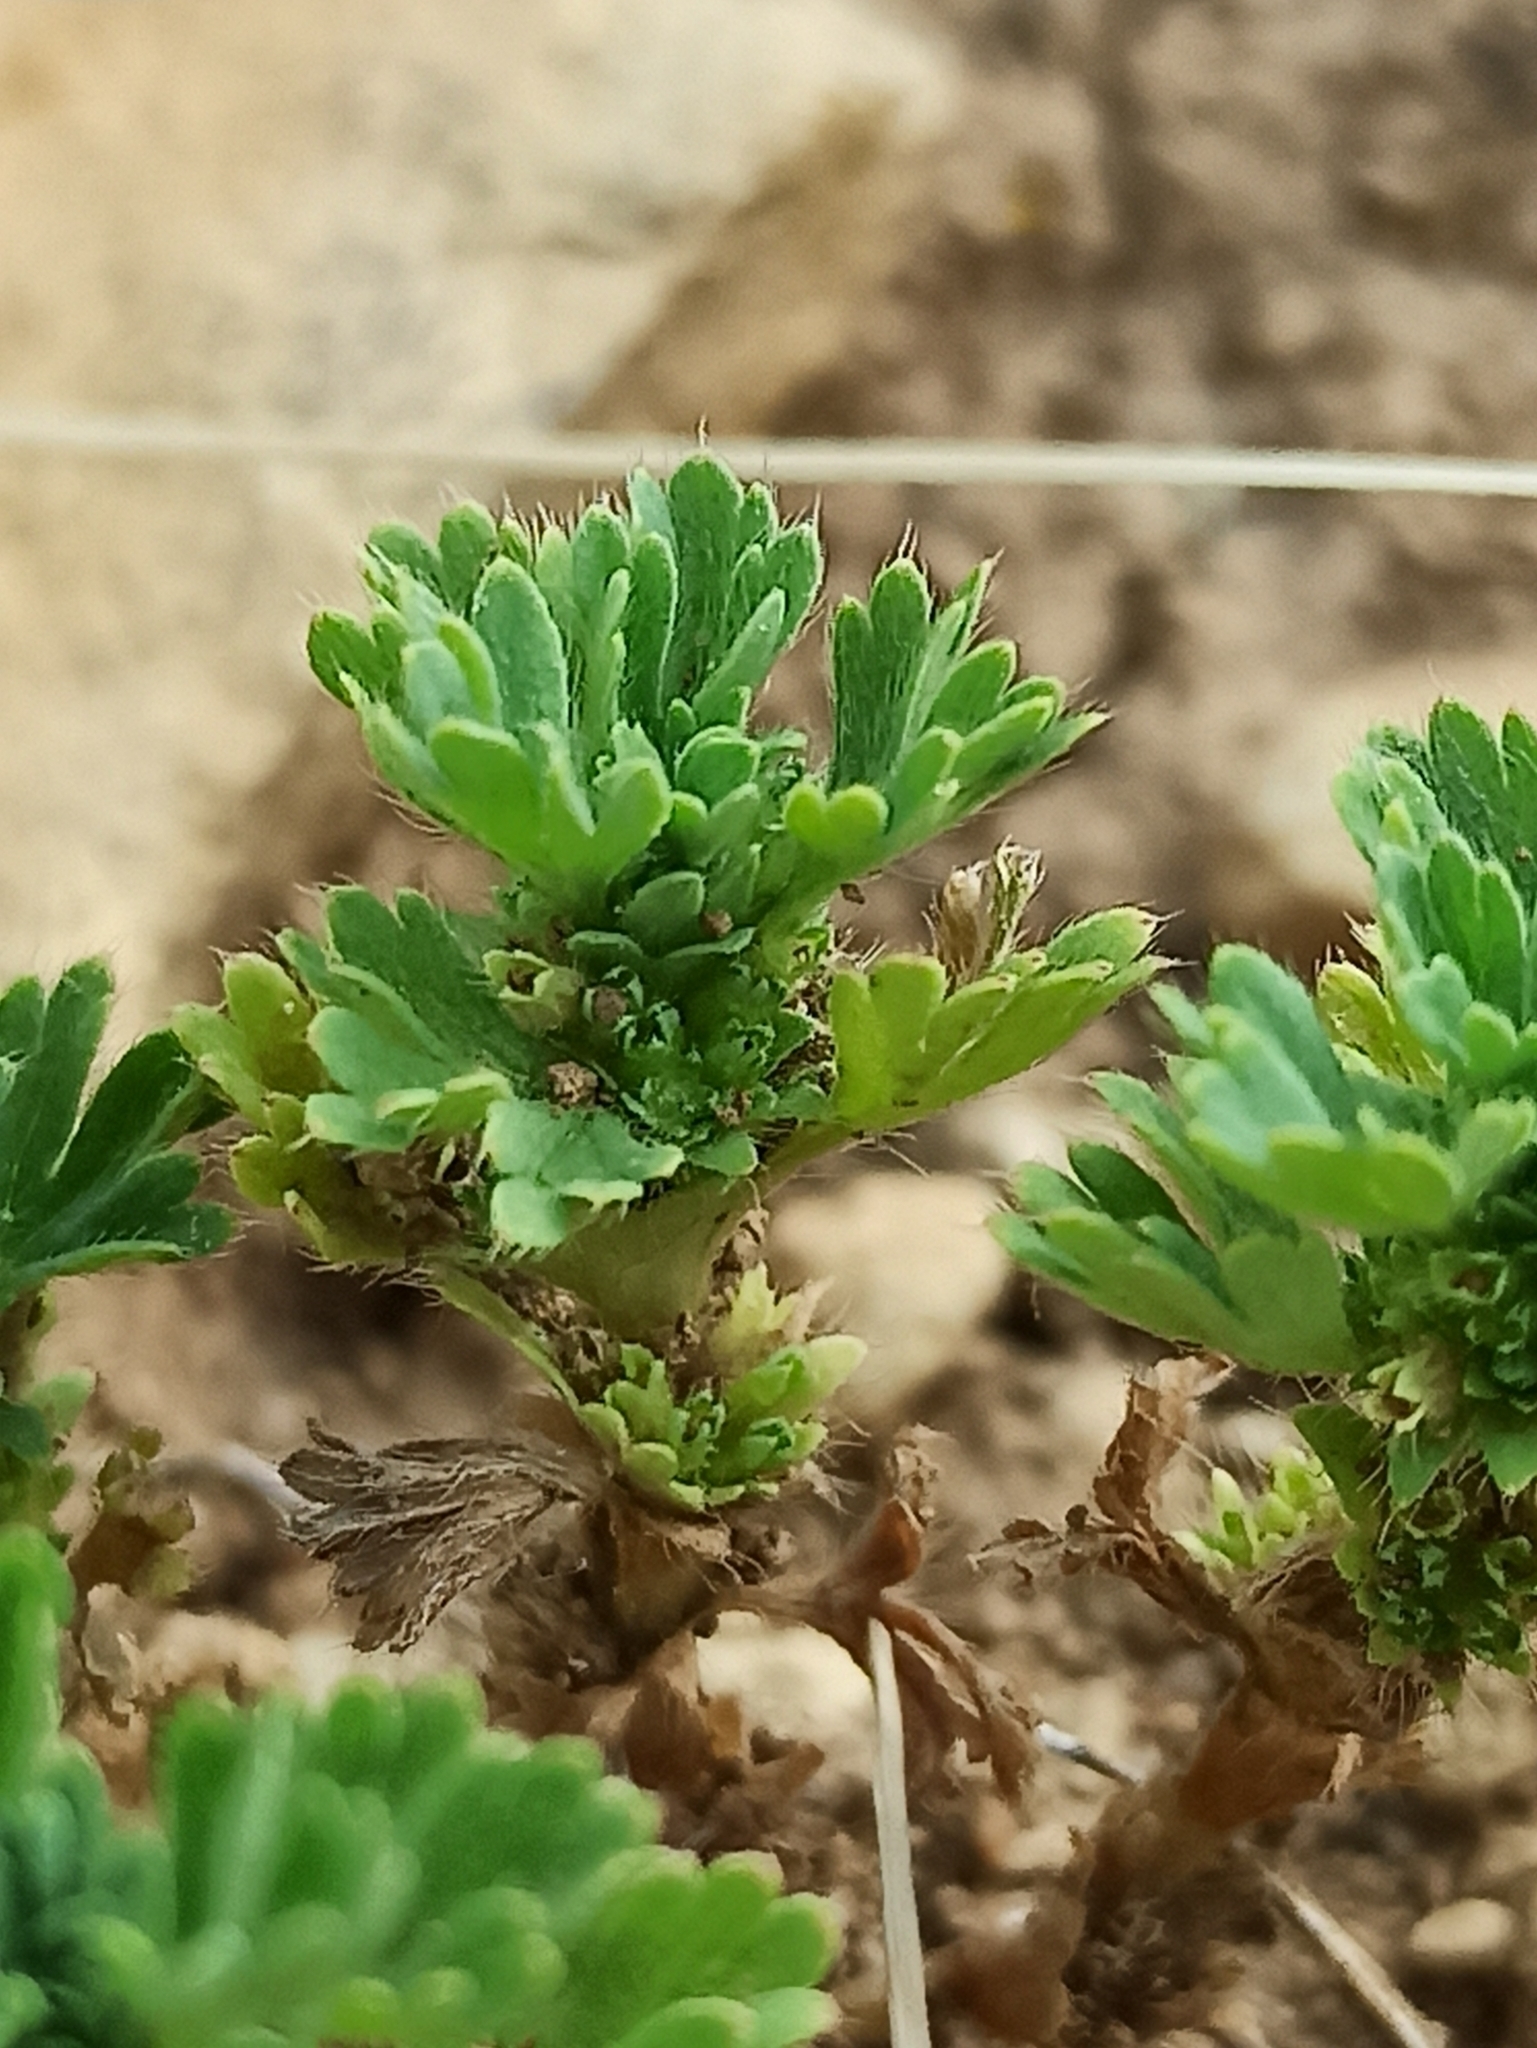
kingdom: Plantae
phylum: Tracheophyta
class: Magnoliopsida
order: Rosales
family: Rosaceae
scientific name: Rosaceae
